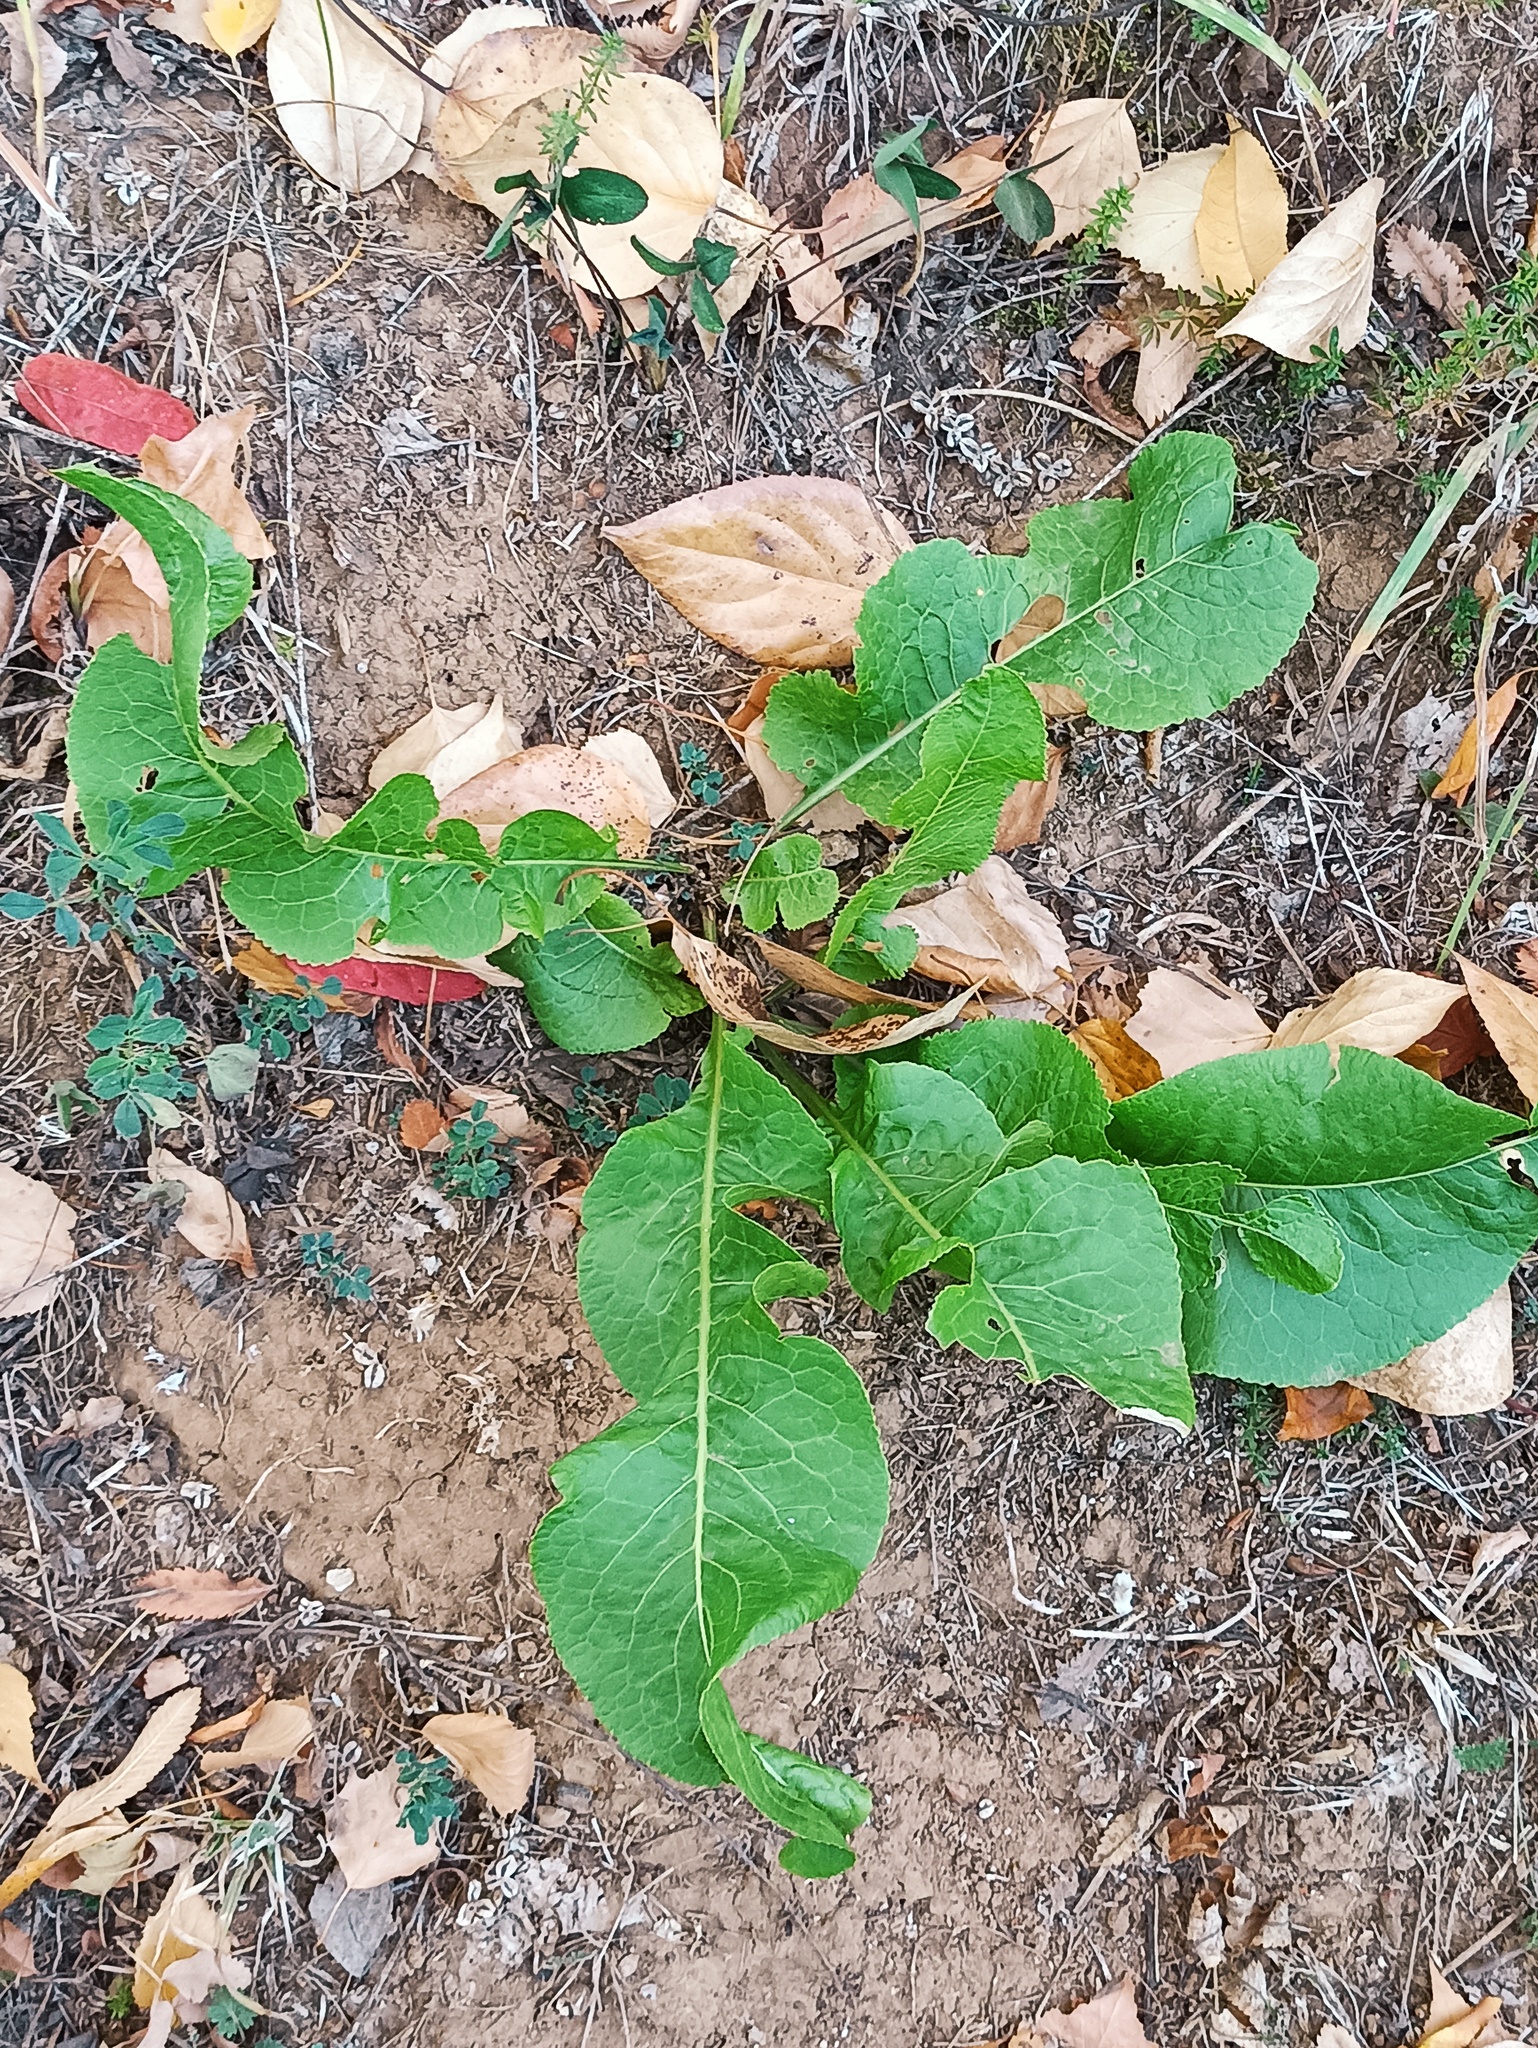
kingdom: Plantae
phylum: Tracheophyta
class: Magnoliopsida
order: Brassicales
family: Brassicaceae
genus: Armoracia
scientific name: Armoracia rusticana
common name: Horseradish
